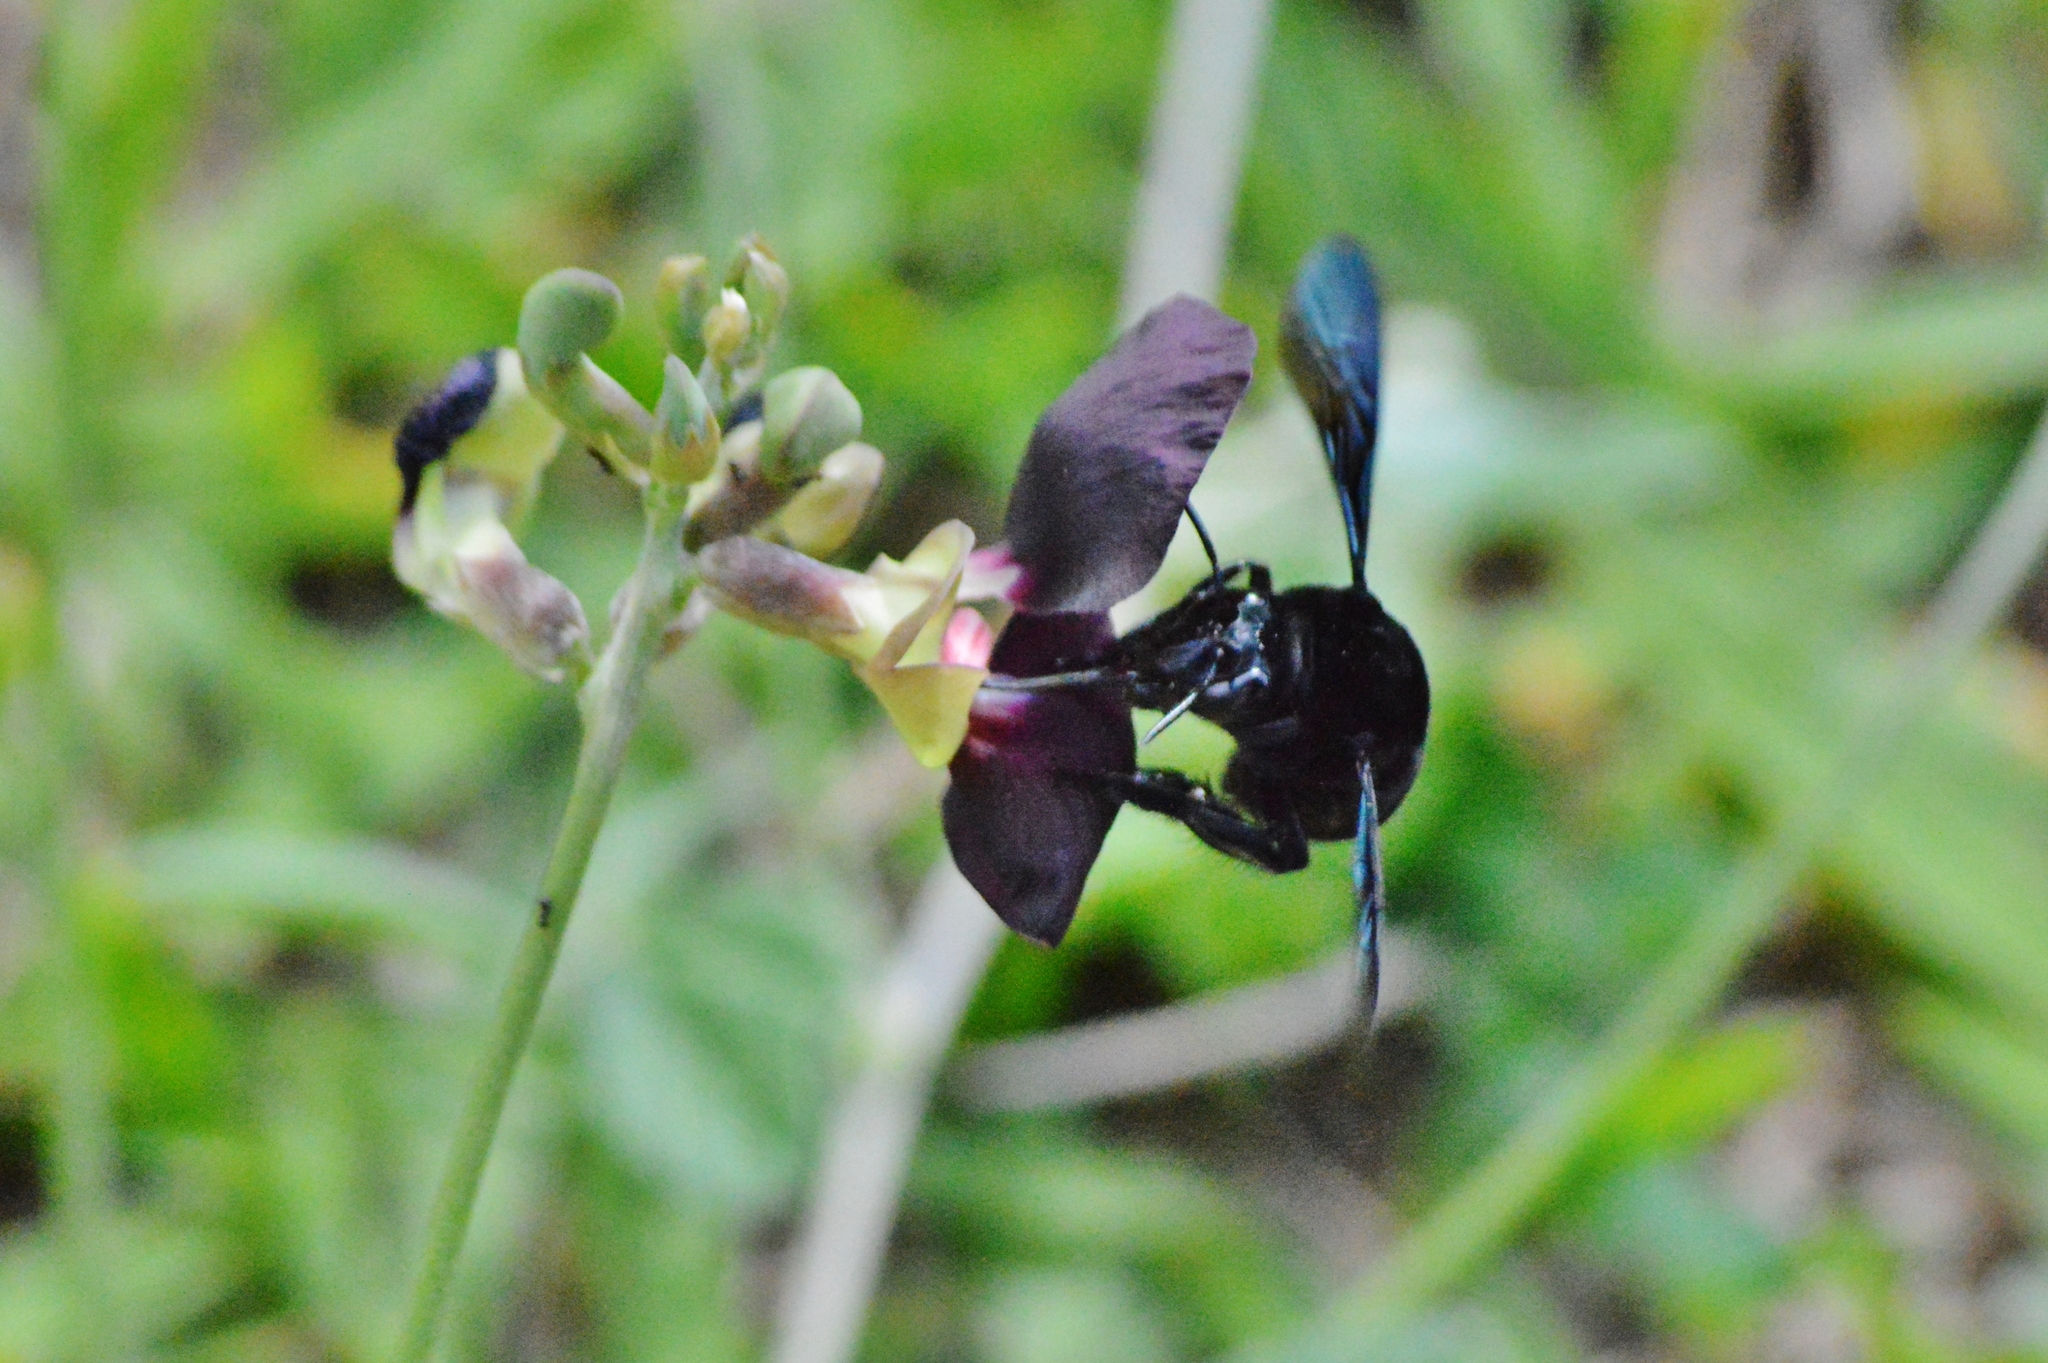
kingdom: Animalia
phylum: Arthropoda
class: Insecta
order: Hymenoptera
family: Apidae
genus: Eulaema
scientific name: Eulaema nigrita
